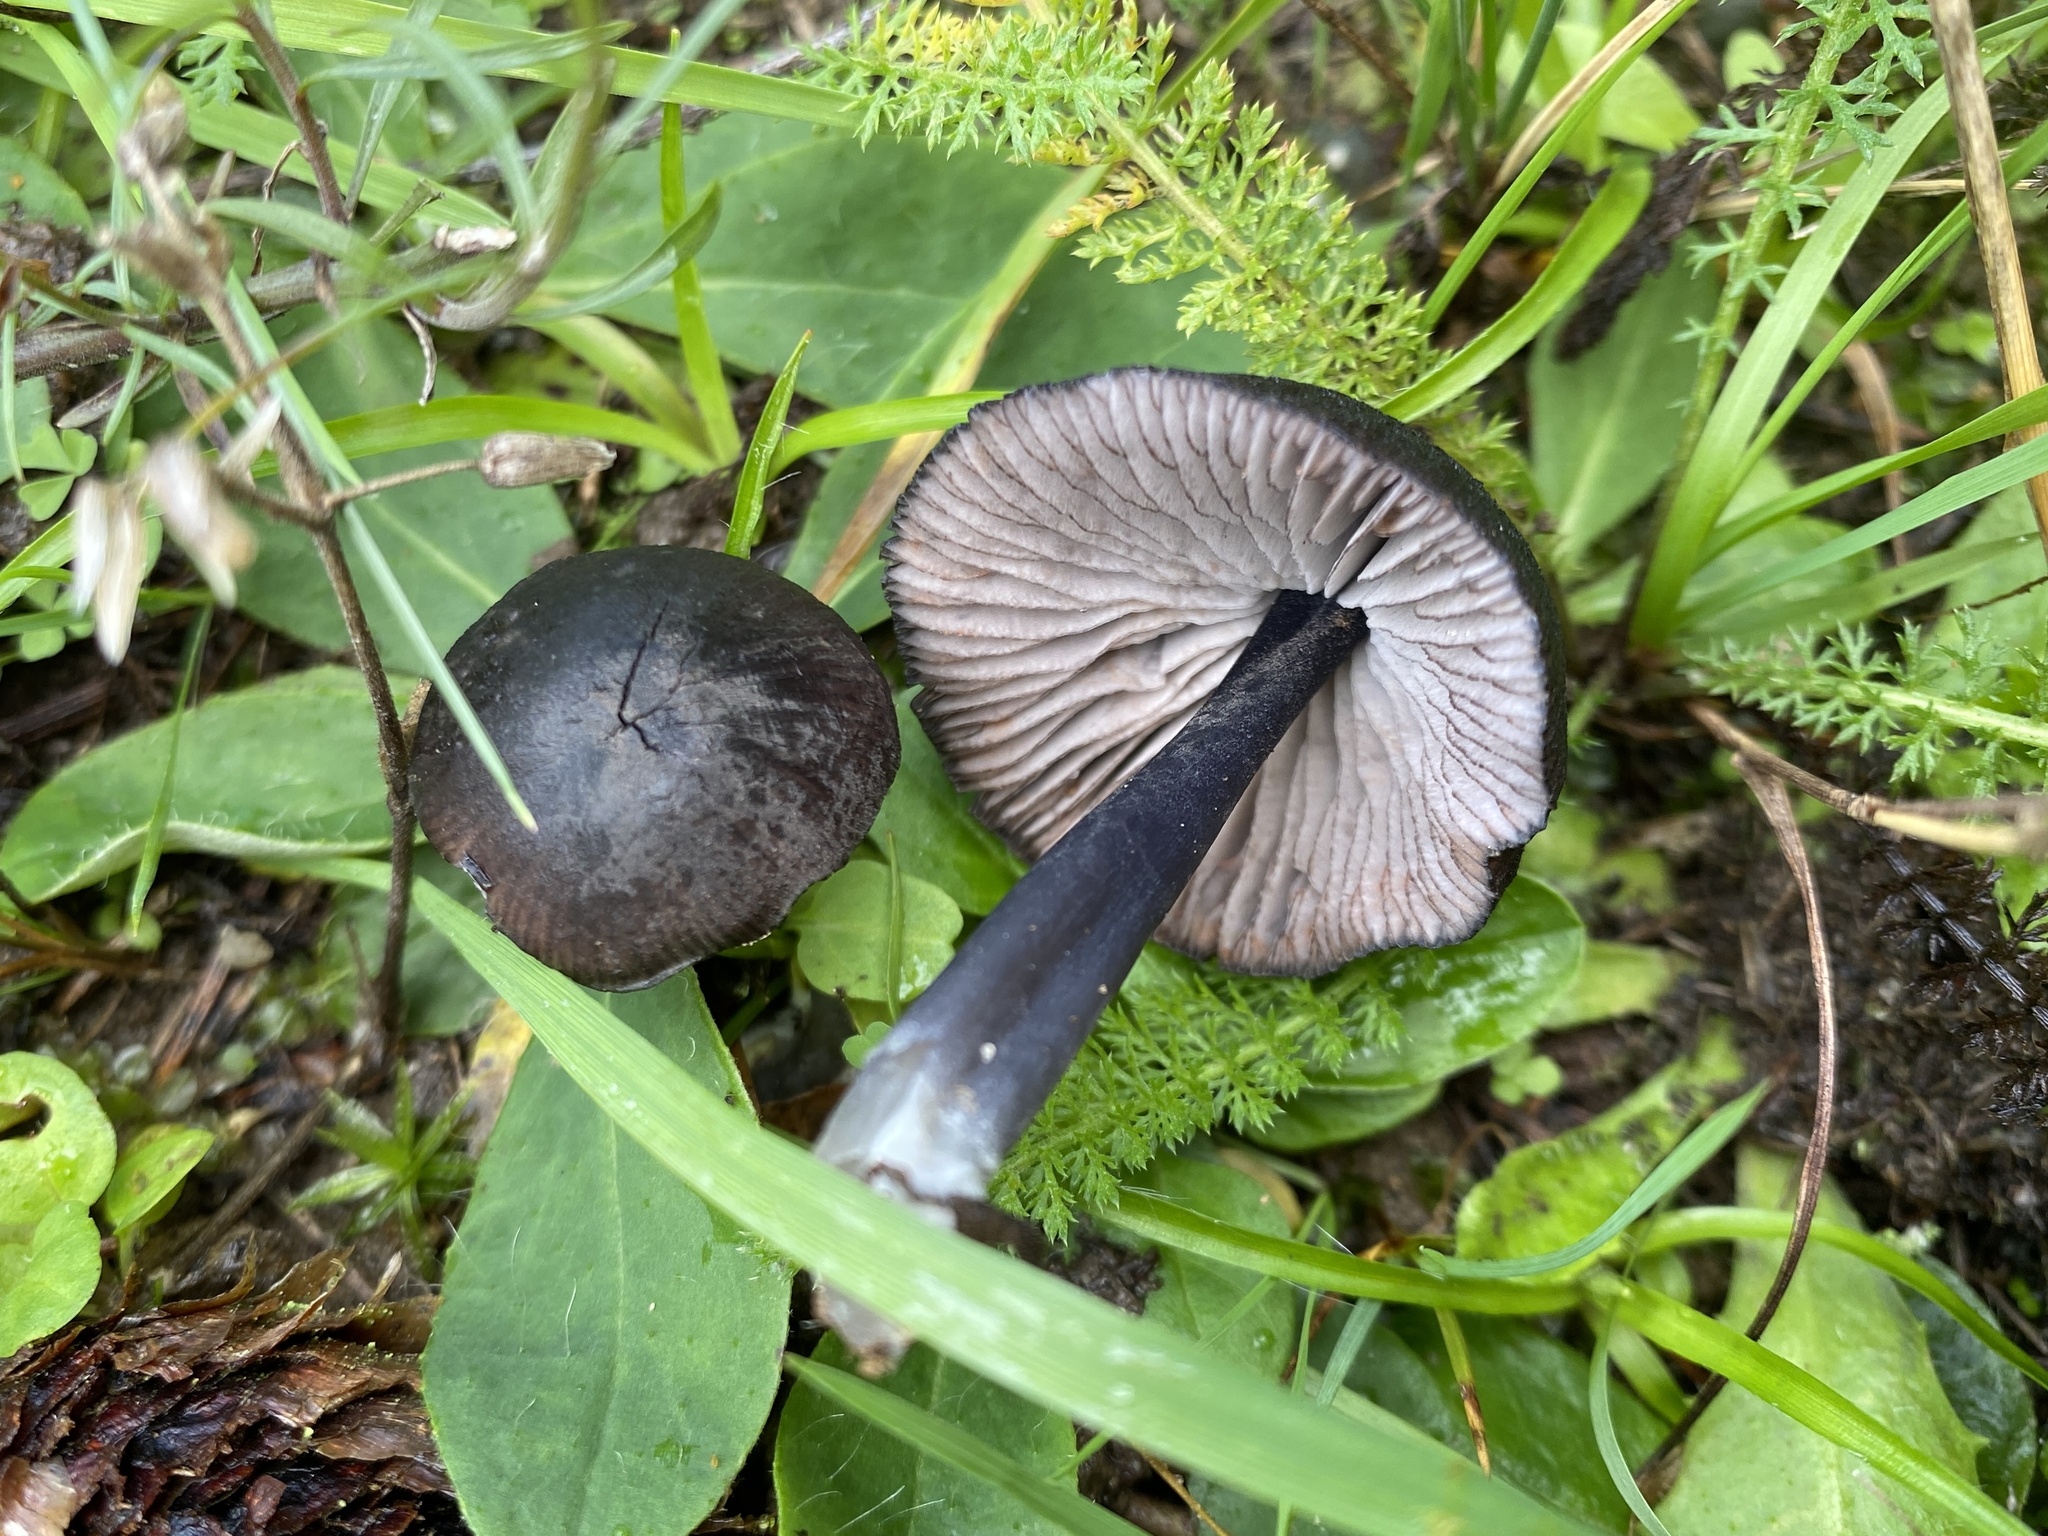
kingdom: Fungi
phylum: Basidiomycota
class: Agaricomycetes
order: Agaricales
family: Entolomataceae
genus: Entoloma
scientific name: Entoloma chalybeum
